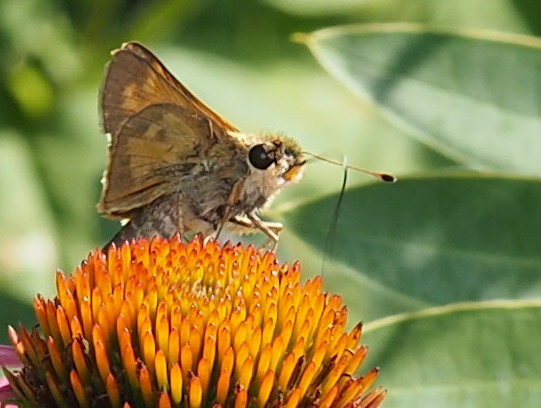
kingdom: Animalia
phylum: Arthropoda
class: Insecta
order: Lepidoptera
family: Hesperiidae
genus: Atalopedes
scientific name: Atalopedes
